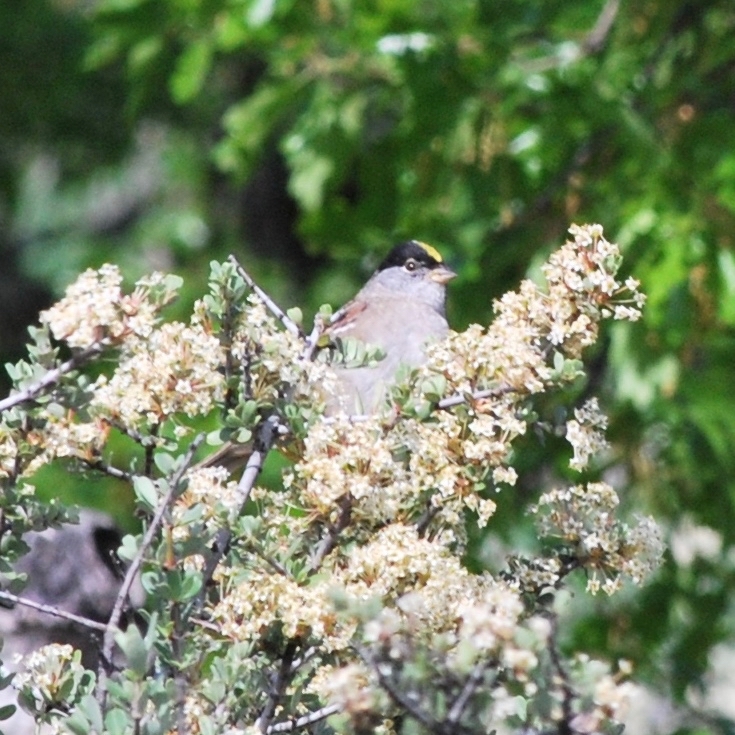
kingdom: Animalia
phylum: Chordata
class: Aves
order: Passeriformes
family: Passerellidae
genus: Zonotrichia
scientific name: Zonotrichia atricapilla
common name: Golden-crowned sparrow
